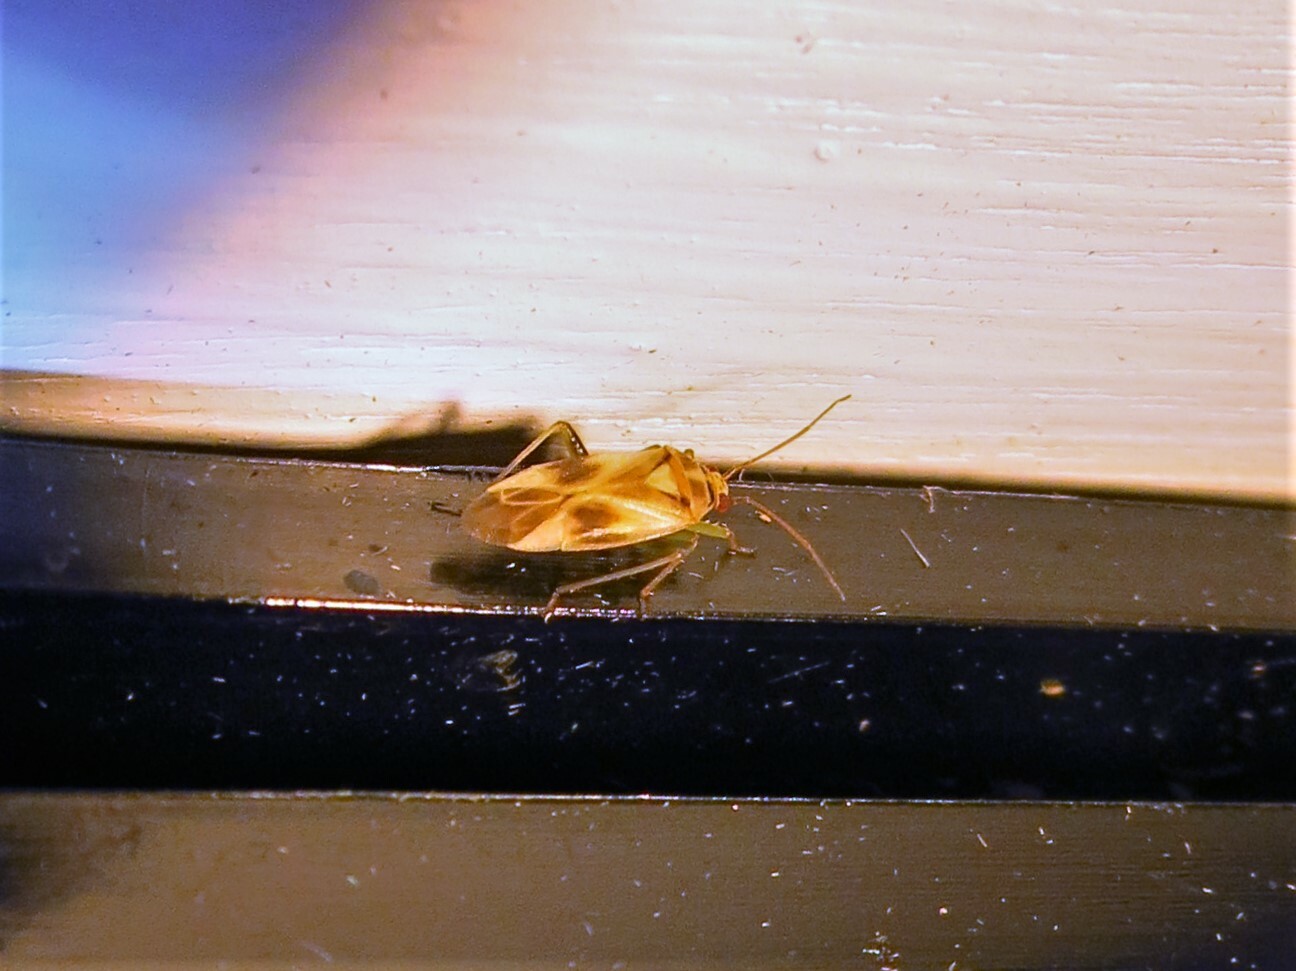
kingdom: Animalia
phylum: Arthropoda
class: Insecta
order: Hemiptera
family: Miridae
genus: Orthotylus
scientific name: Orthotylus ornatus
